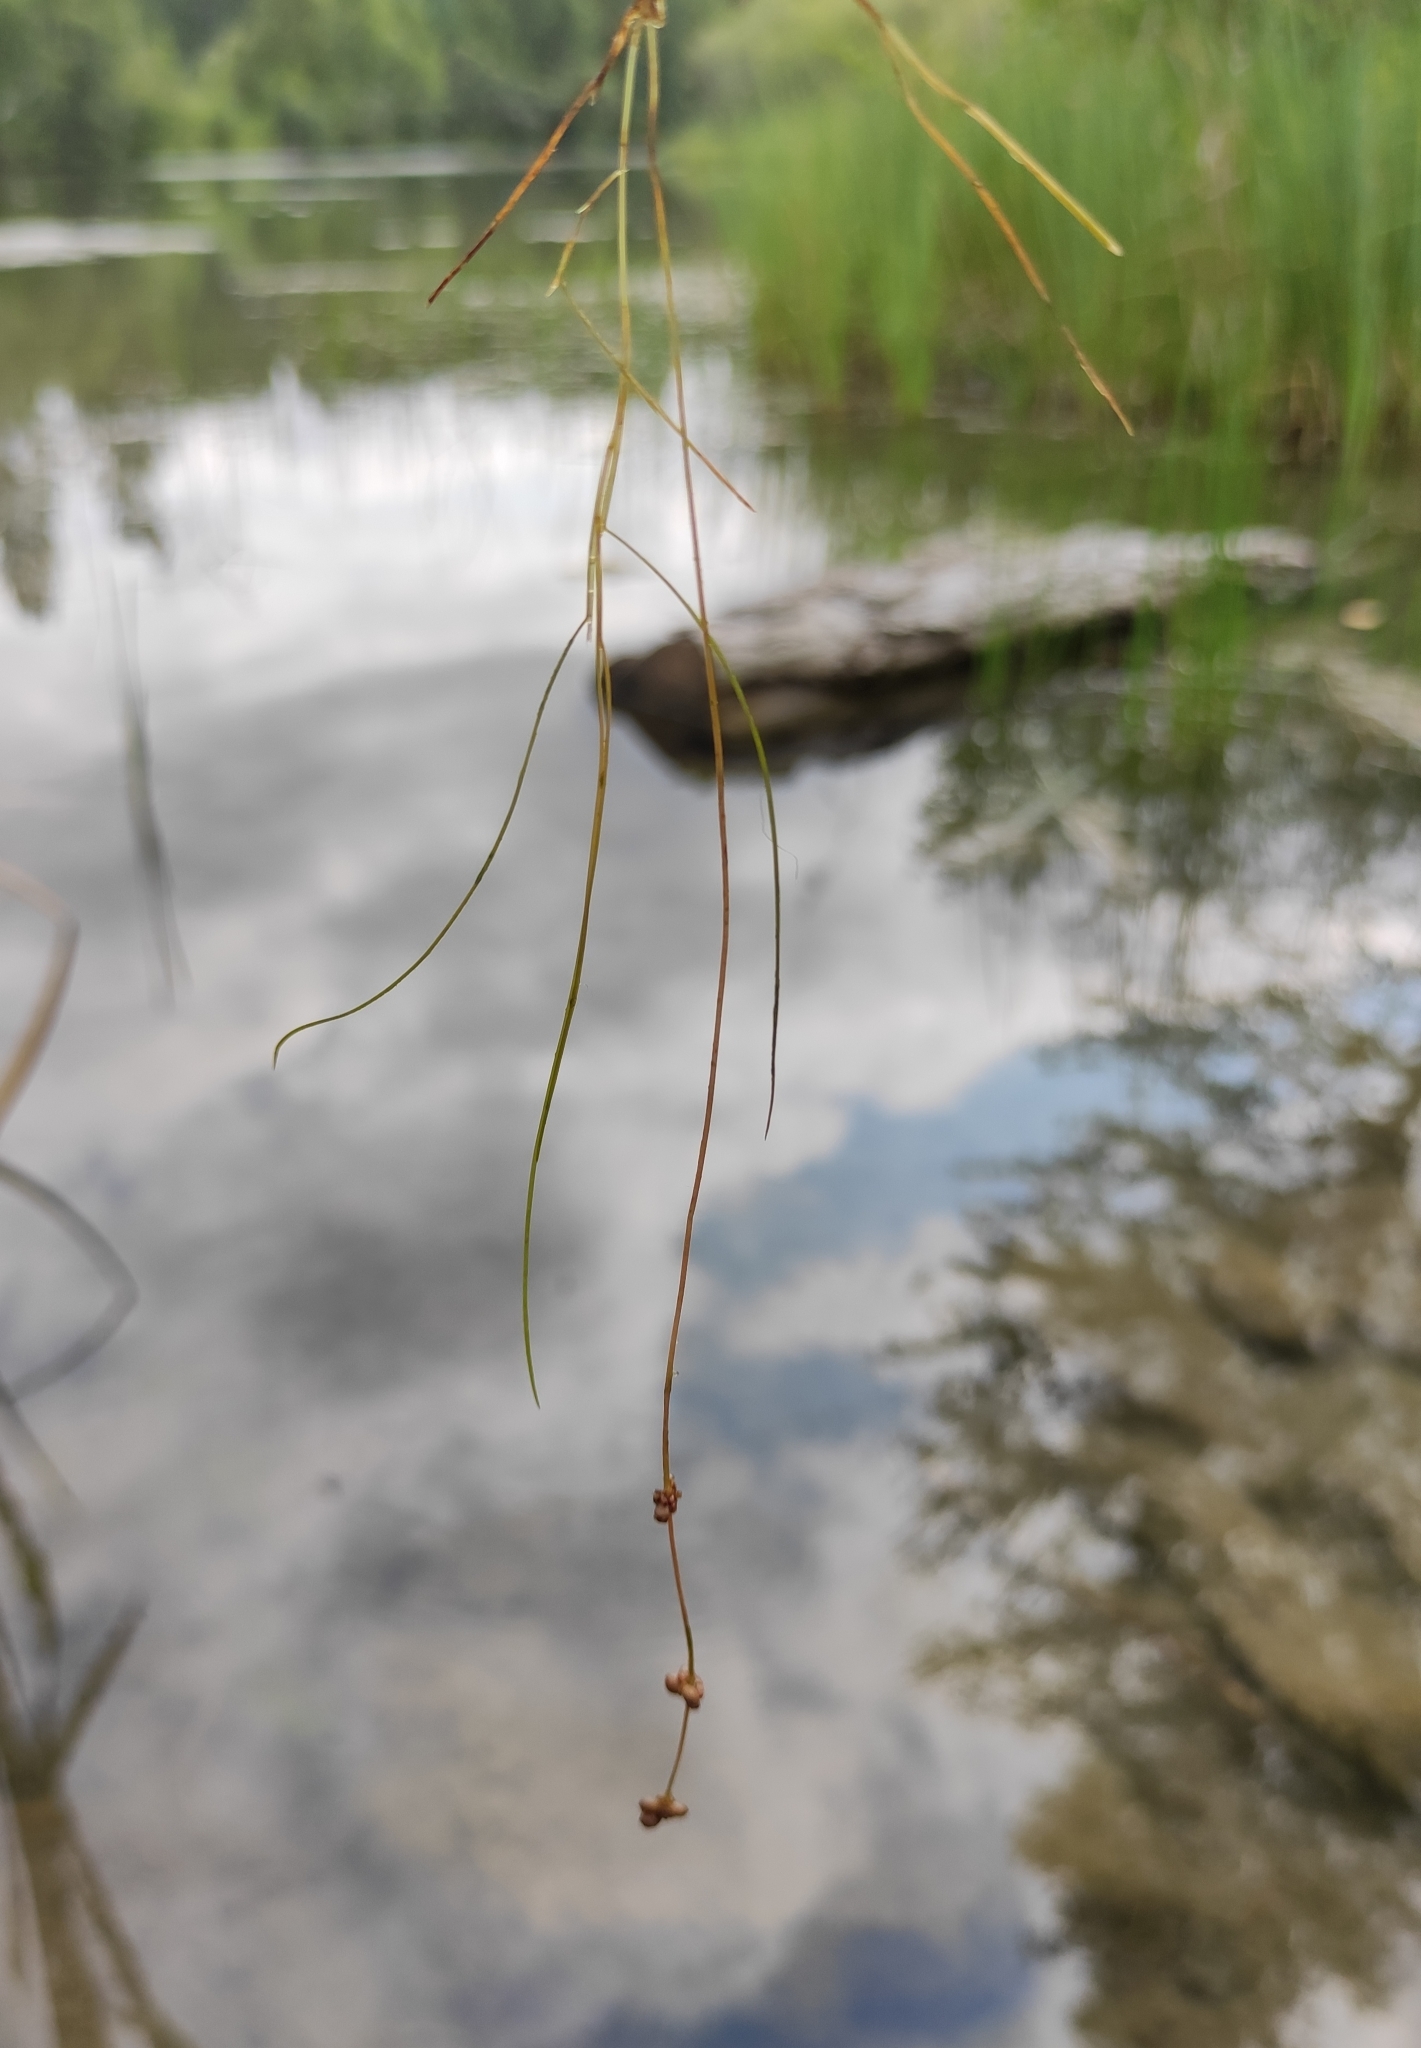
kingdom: Plantae
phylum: Tracheophyta
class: Liliopsida
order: Alismatales
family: Potamogetonaceae
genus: Stuckenia
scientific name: Stuckenia pectinata
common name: Sago pondweed
